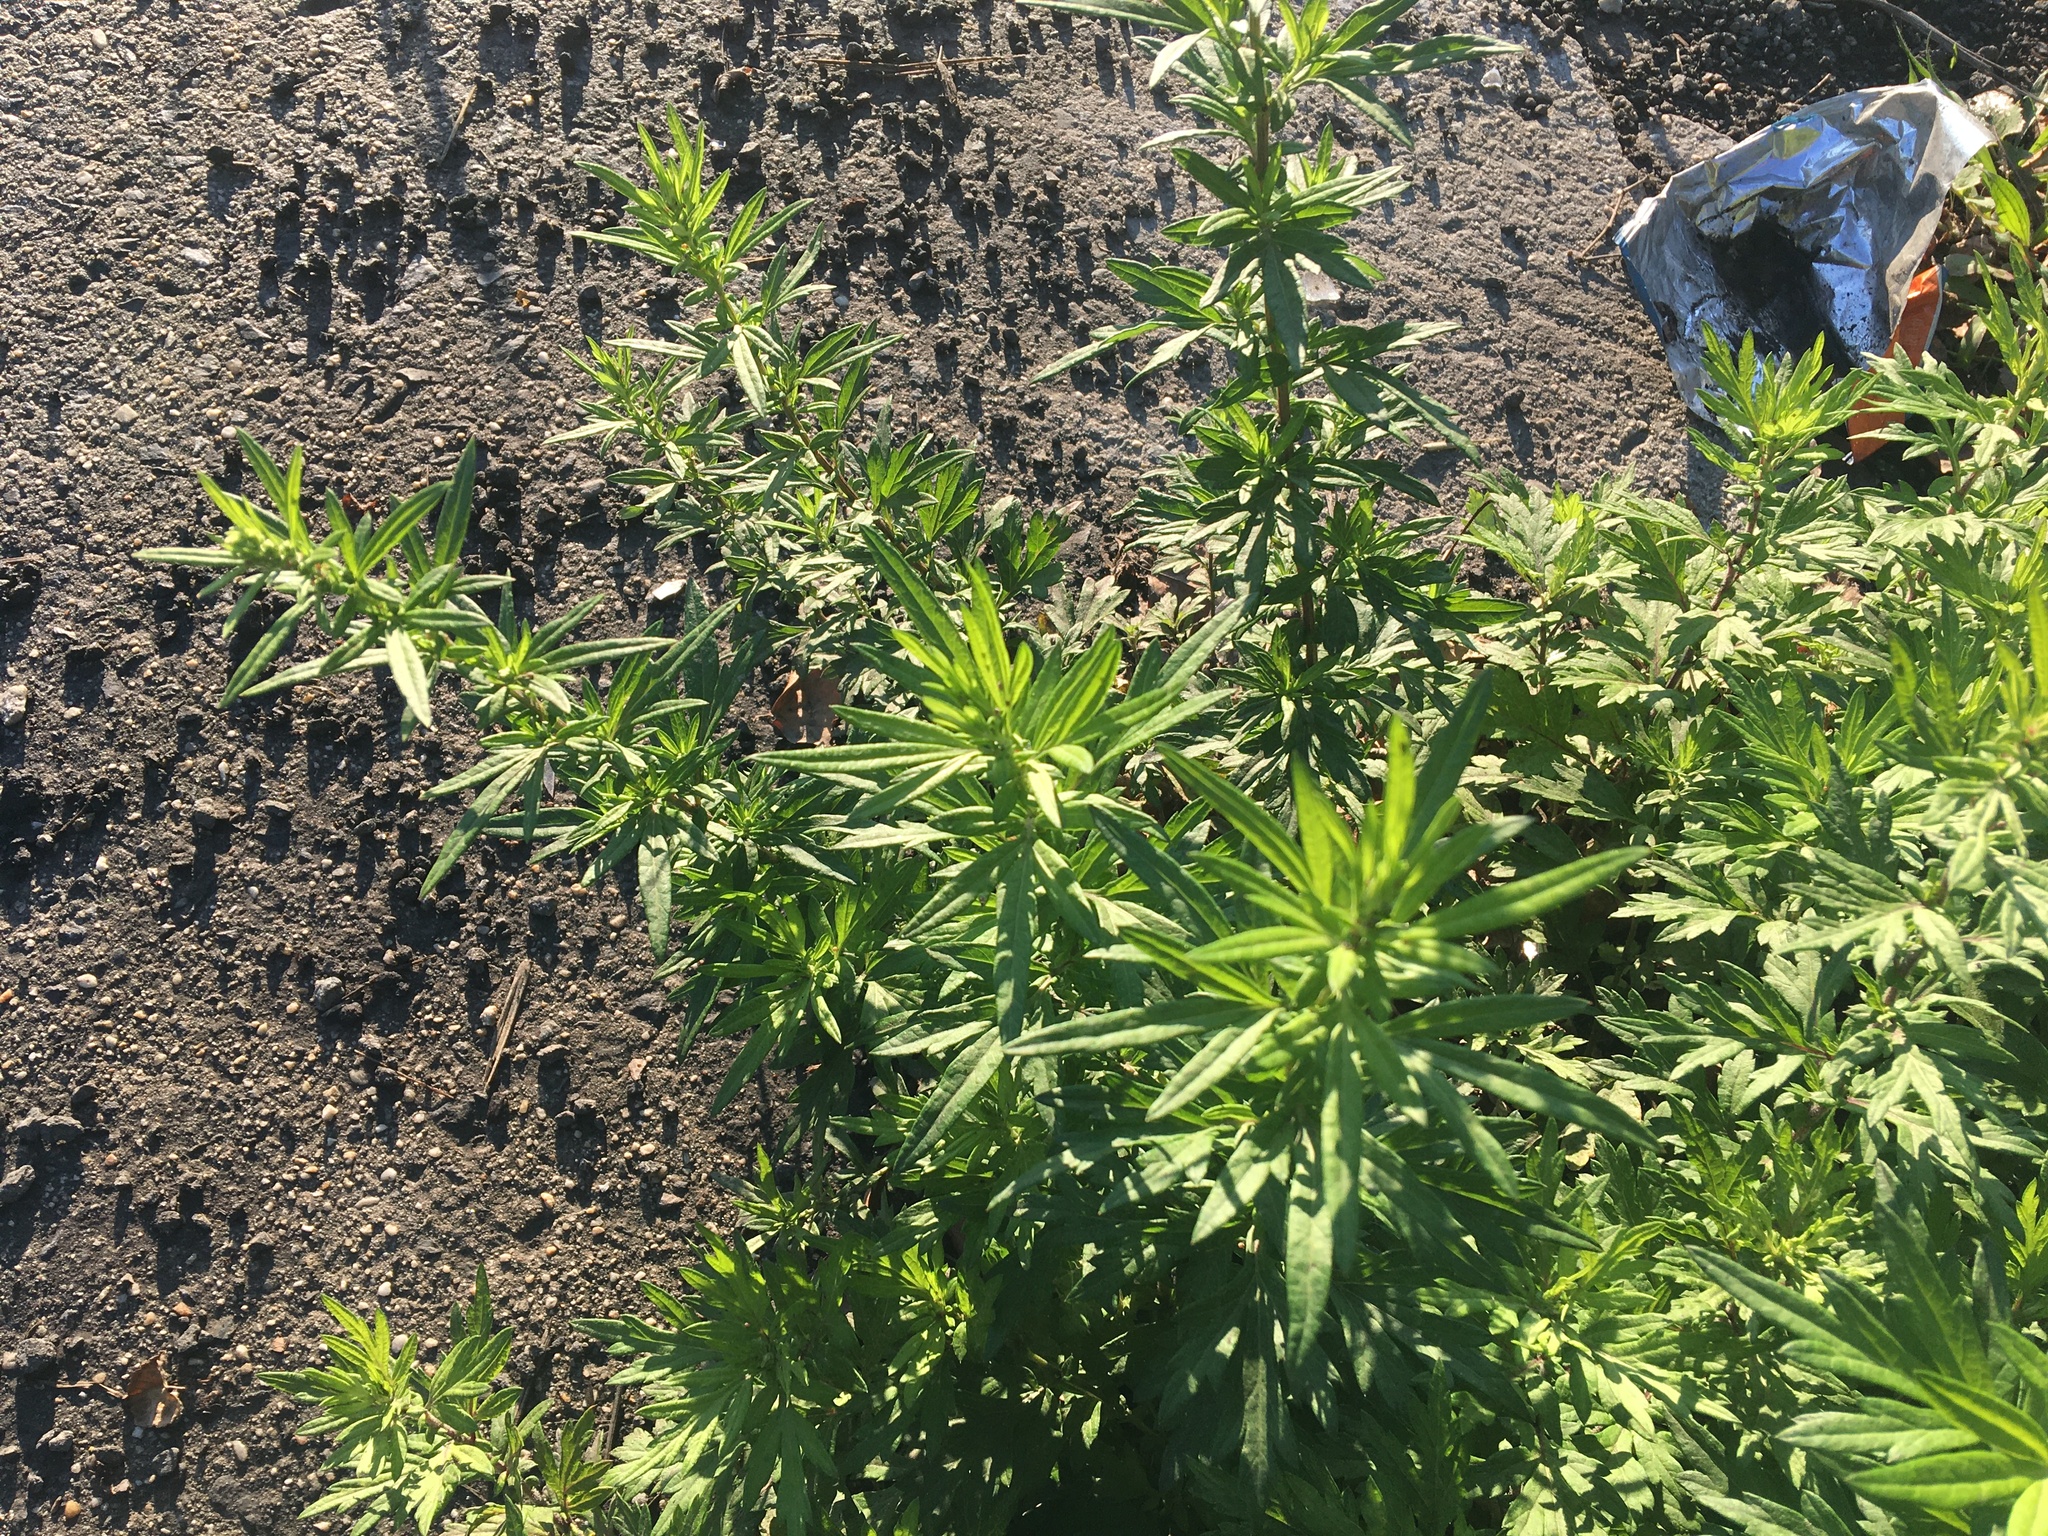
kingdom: Plantae
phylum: Tracheophyta
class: Magnoliopsida
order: Asterales
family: Asteraceae
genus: Artemisia
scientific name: Artemisia vulgaris
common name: Mugwort
